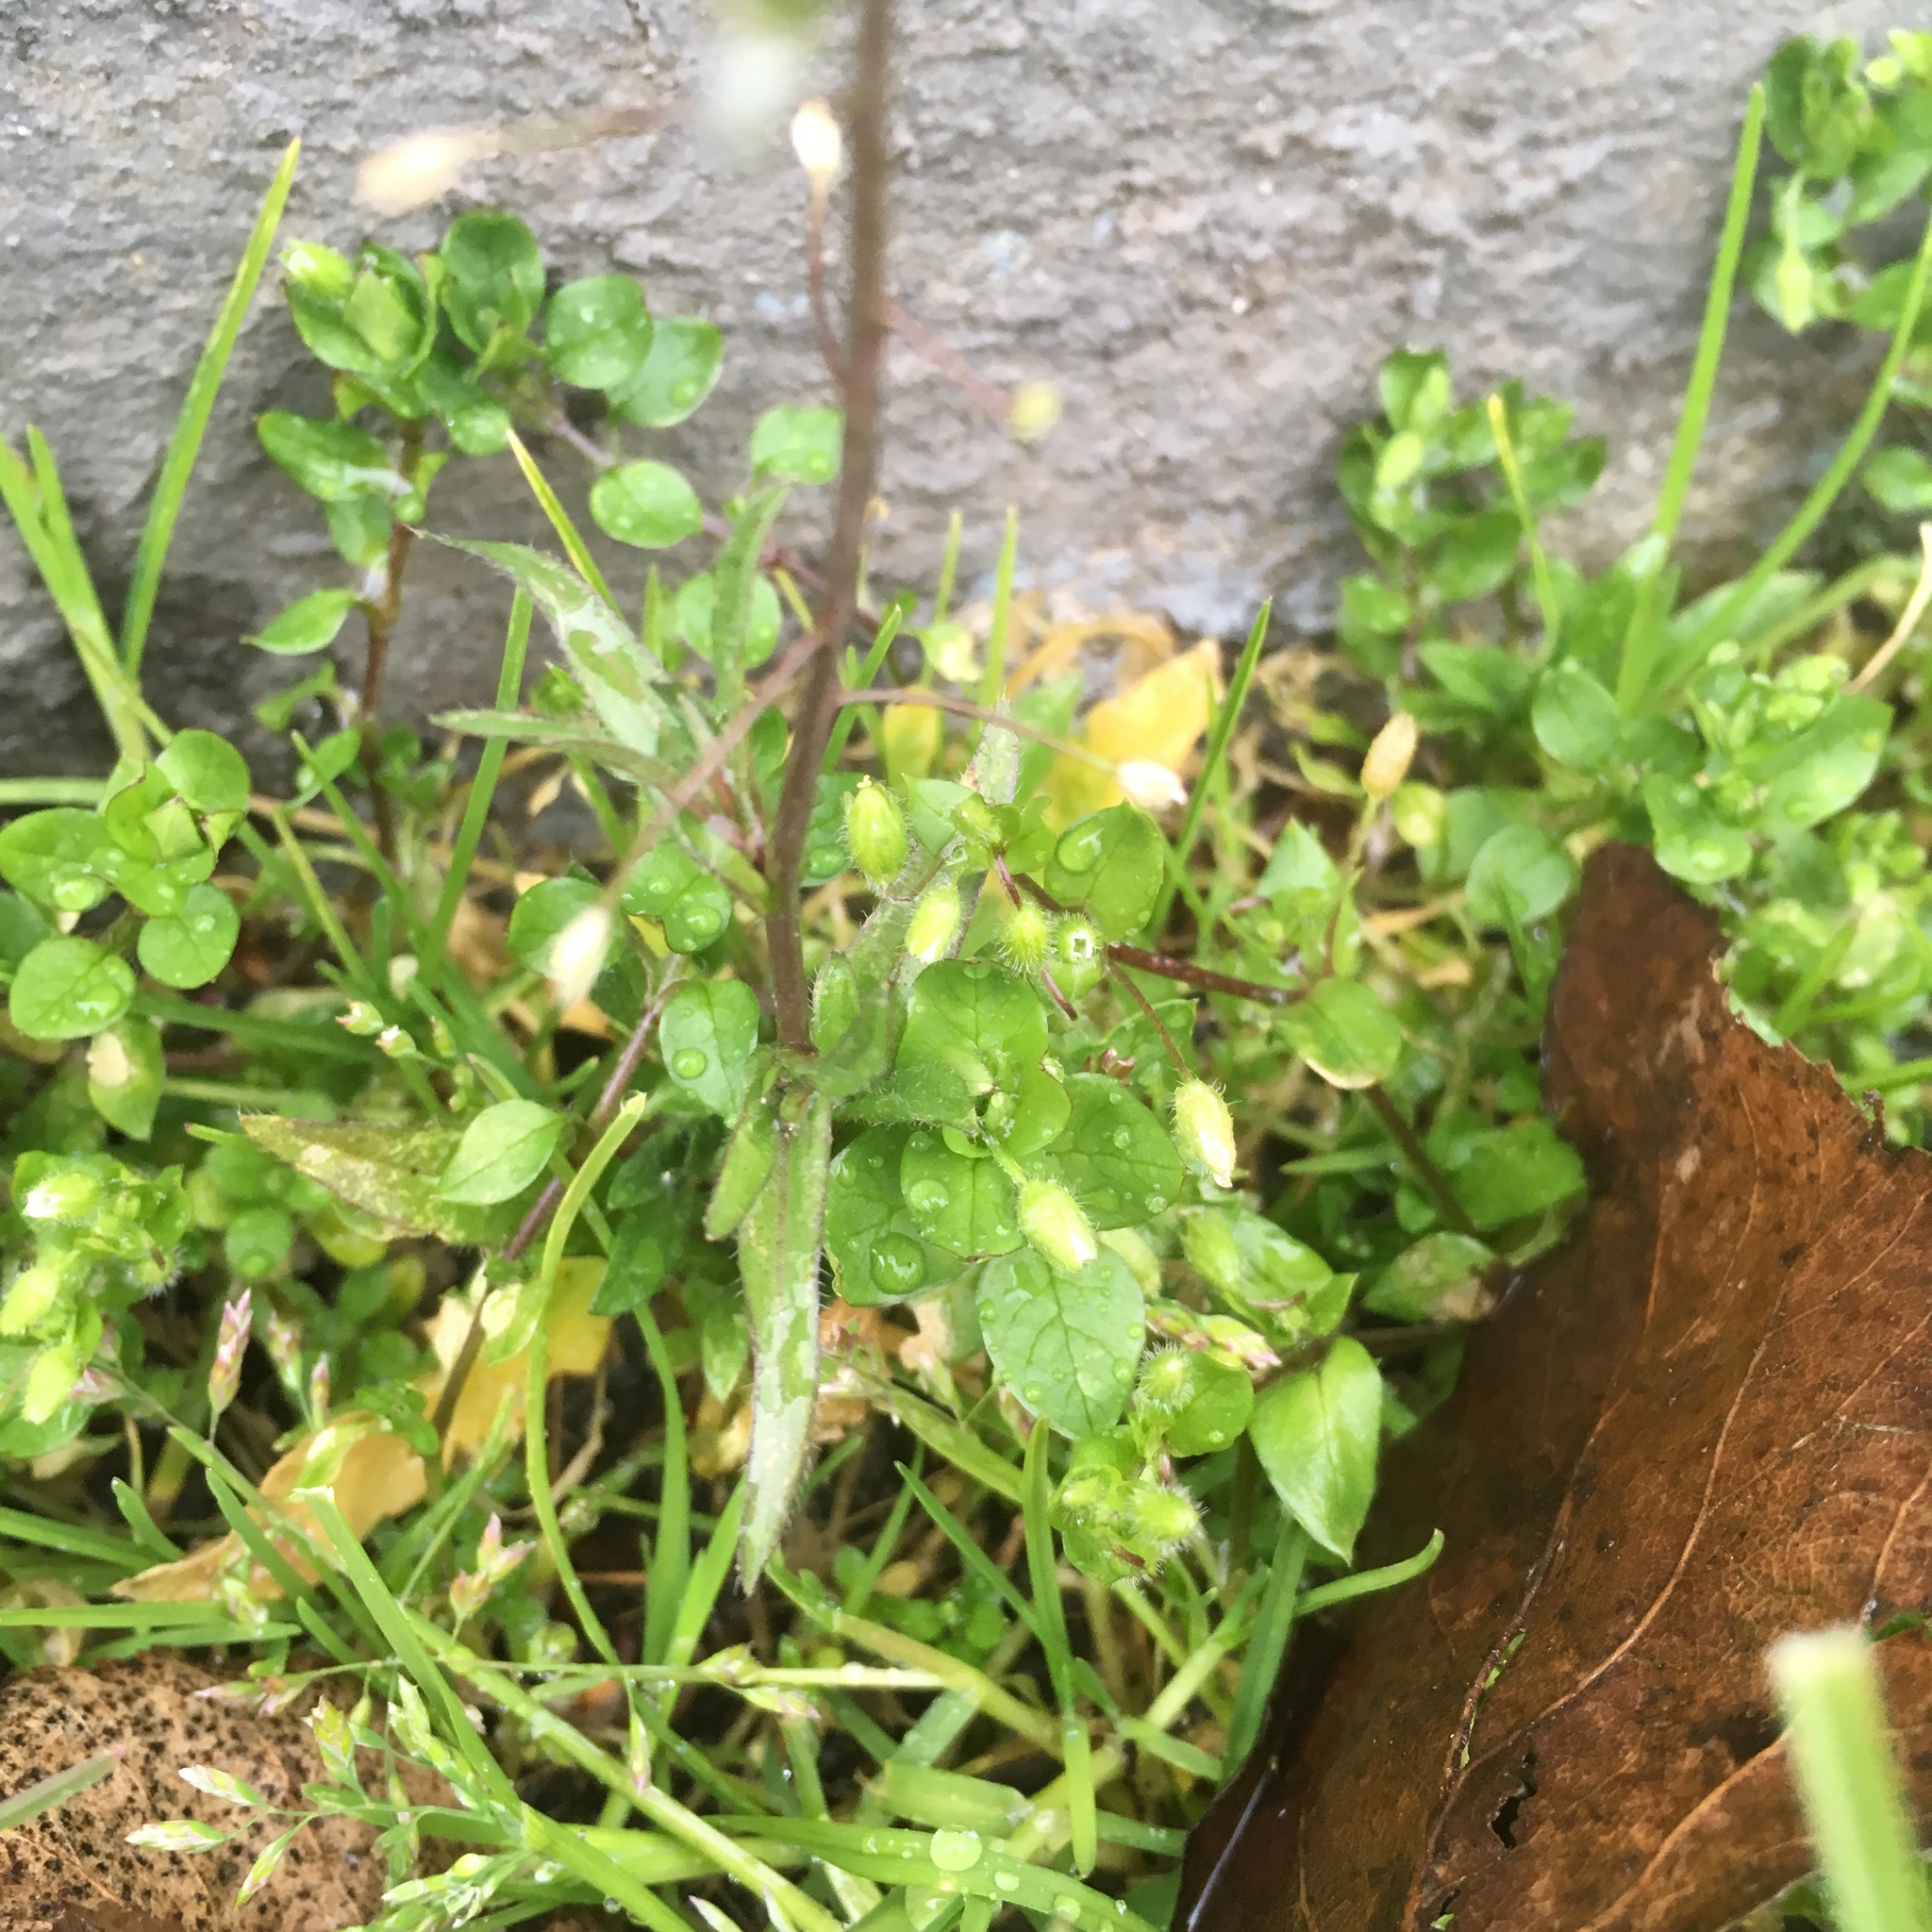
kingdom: Plantae
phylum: Tracheophyta
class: Magnoliopsida
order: Brassicales
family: Brassicaceae
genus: Capsella
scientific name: Capsella bursa-pastoris
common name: Shepherd's purse
